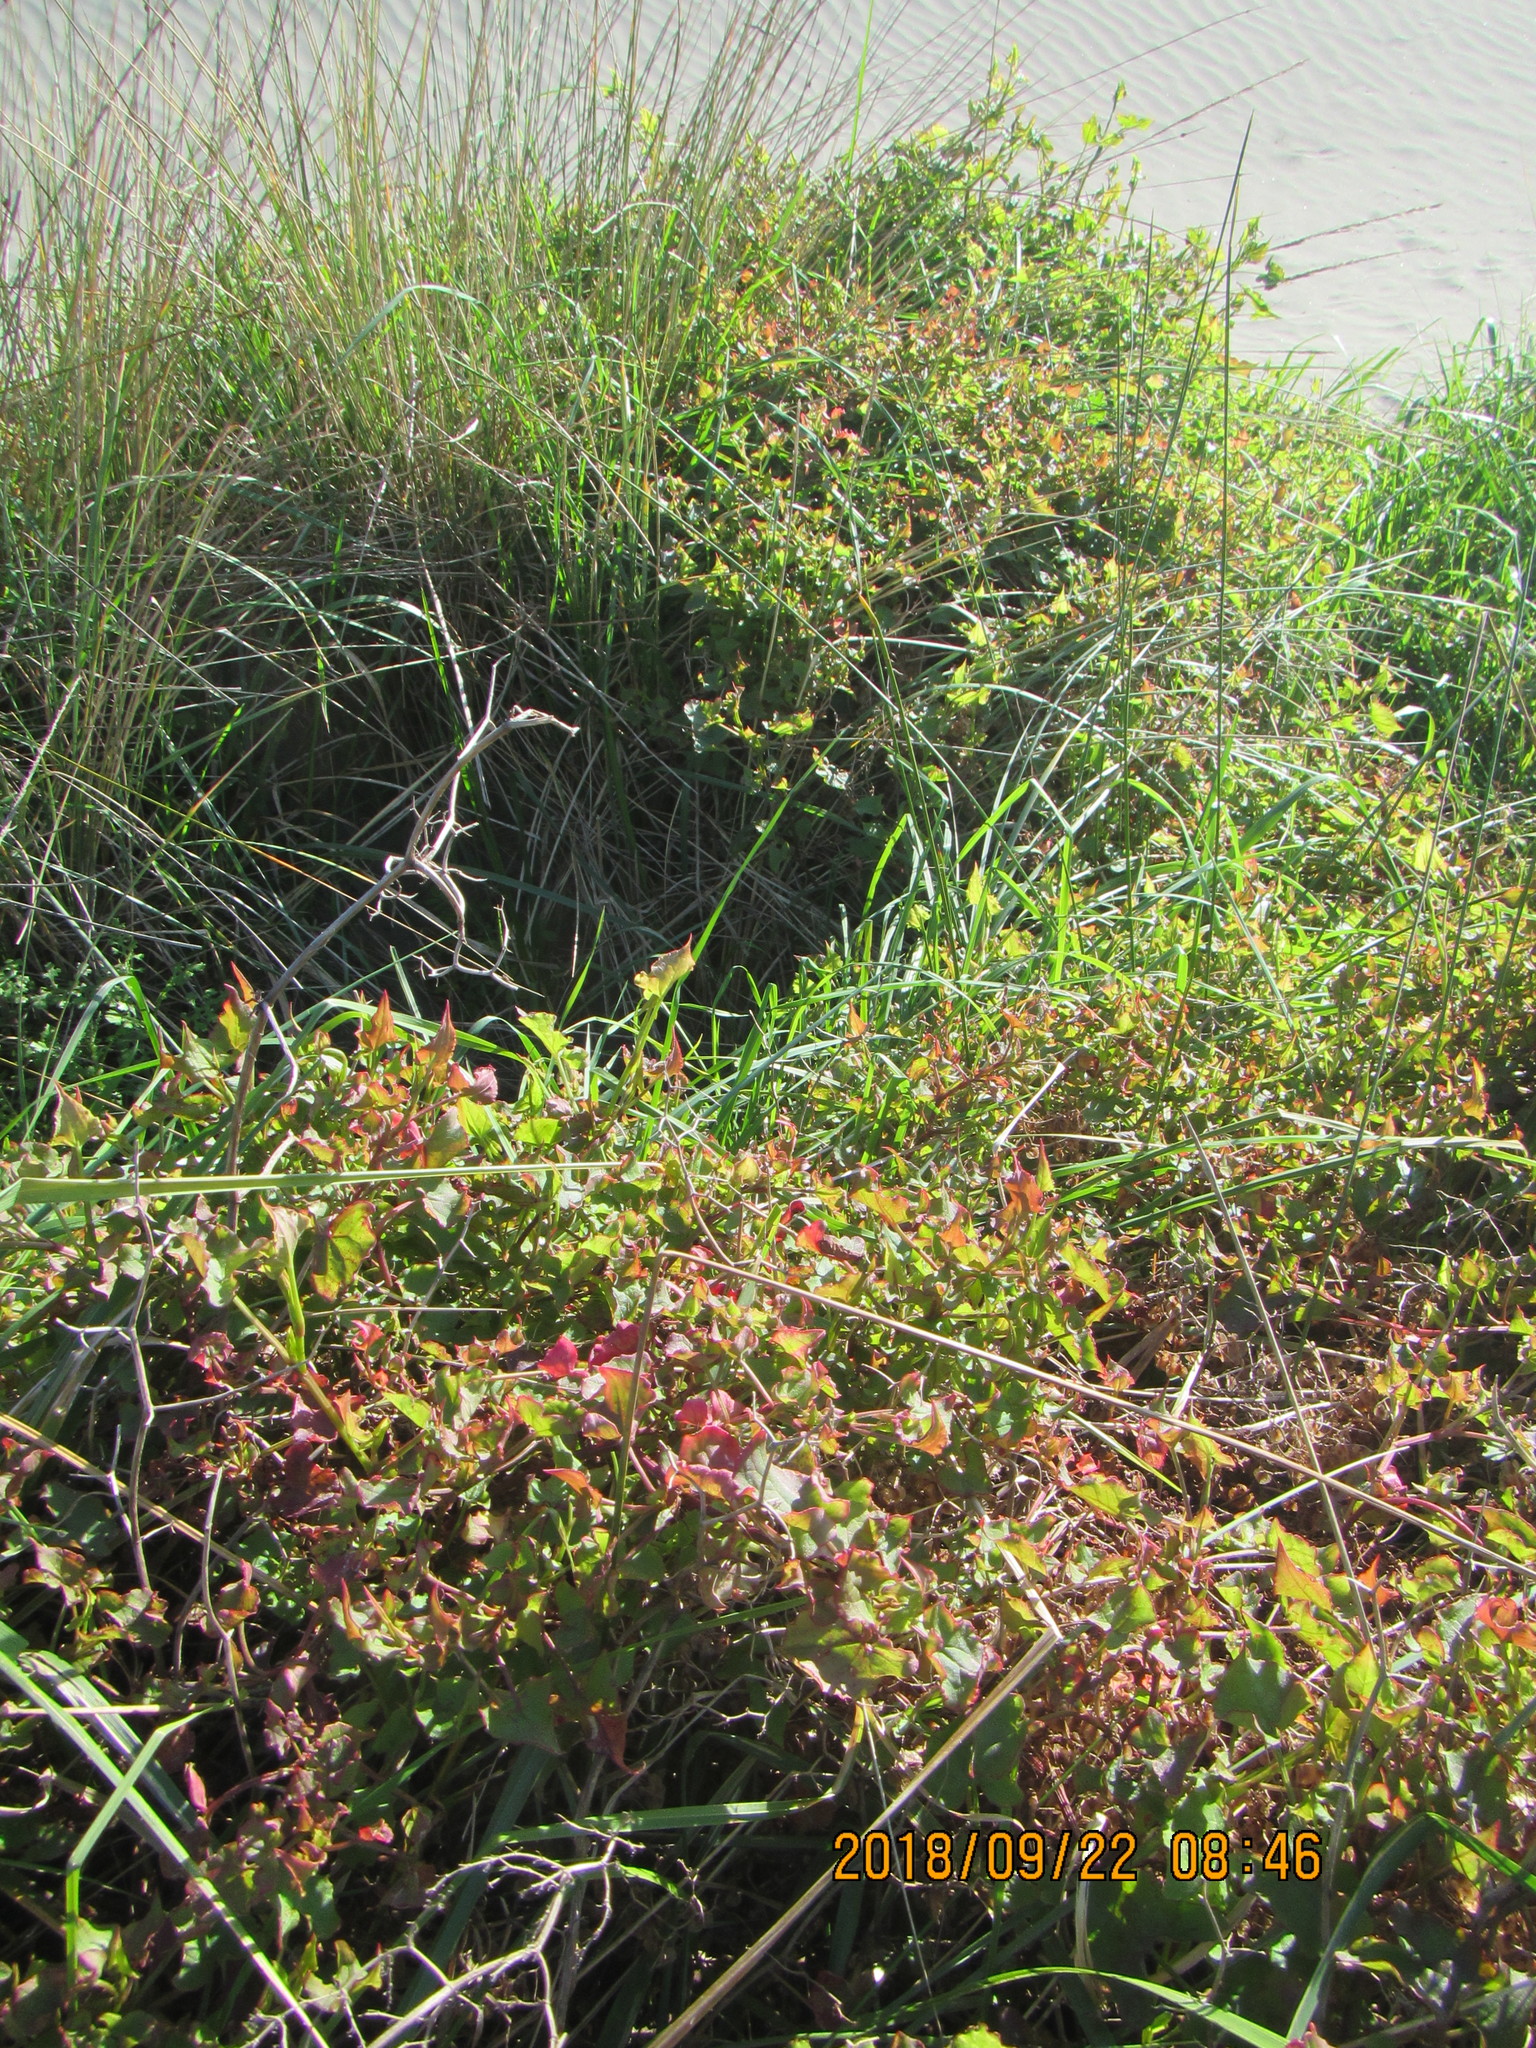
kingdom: Plantae
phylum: Tracheophyta
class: Magnoliopsida
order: Caryophyllales
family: Polygonaceae
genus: Rumex
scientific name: Rumex sagittatus
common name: Climbing dock
